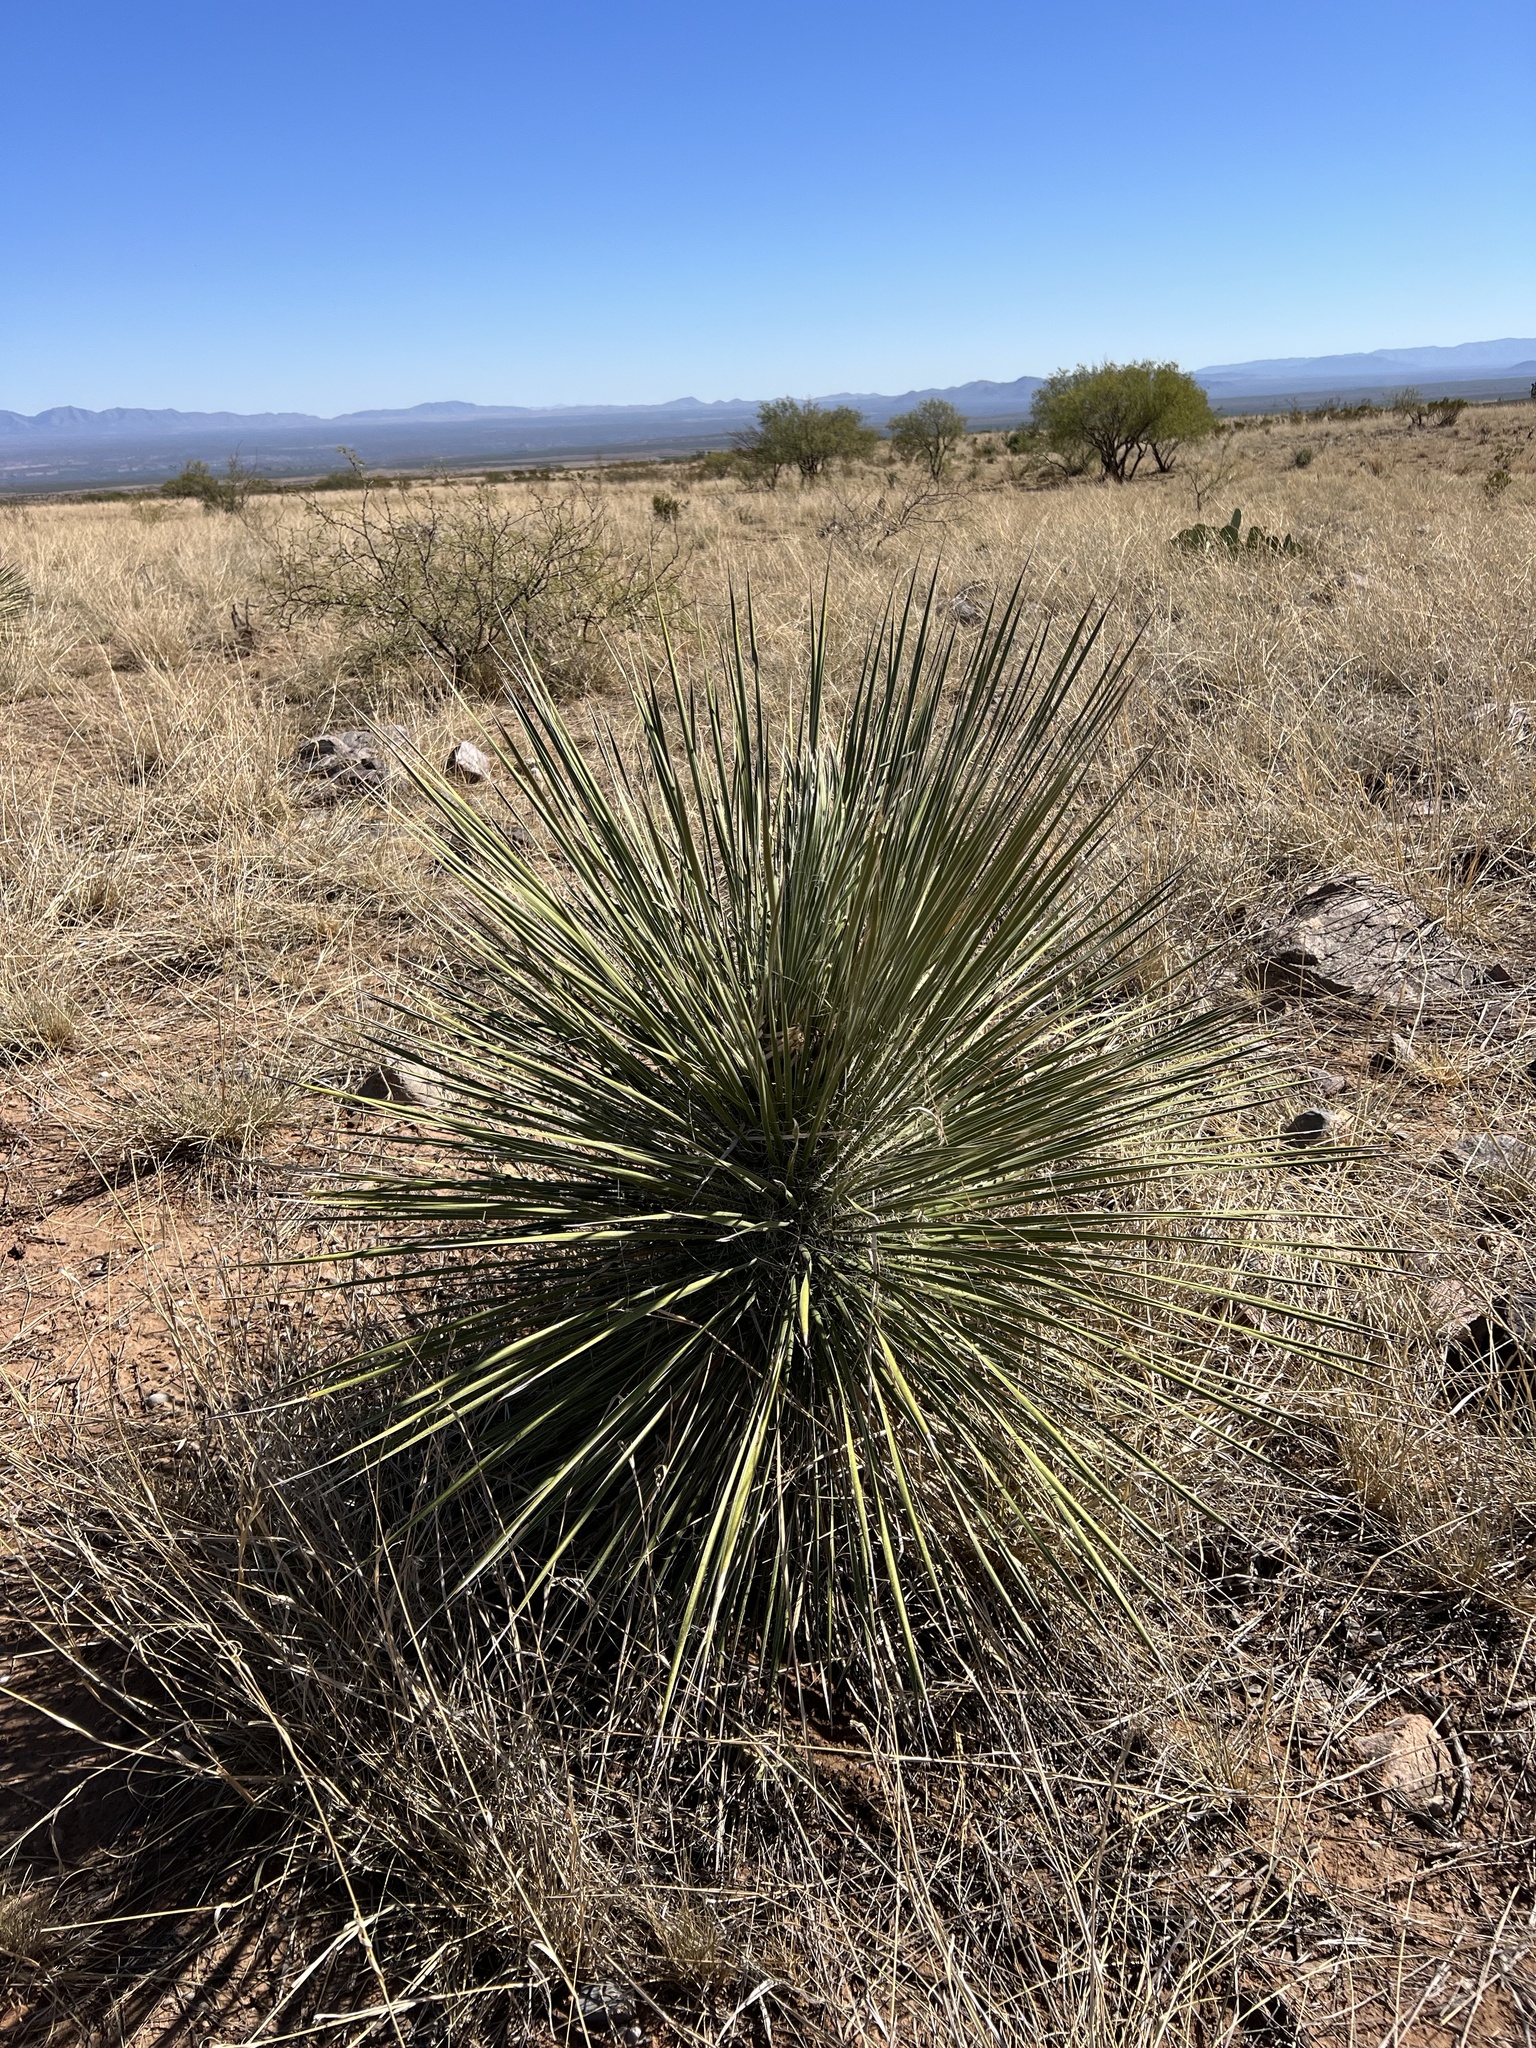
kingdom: Plantae
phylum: Tracheophyta
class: Liliopsida
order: Asparagales
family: Asparagaceae
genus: Yucca
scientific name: Yucca elata
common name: Palmella
